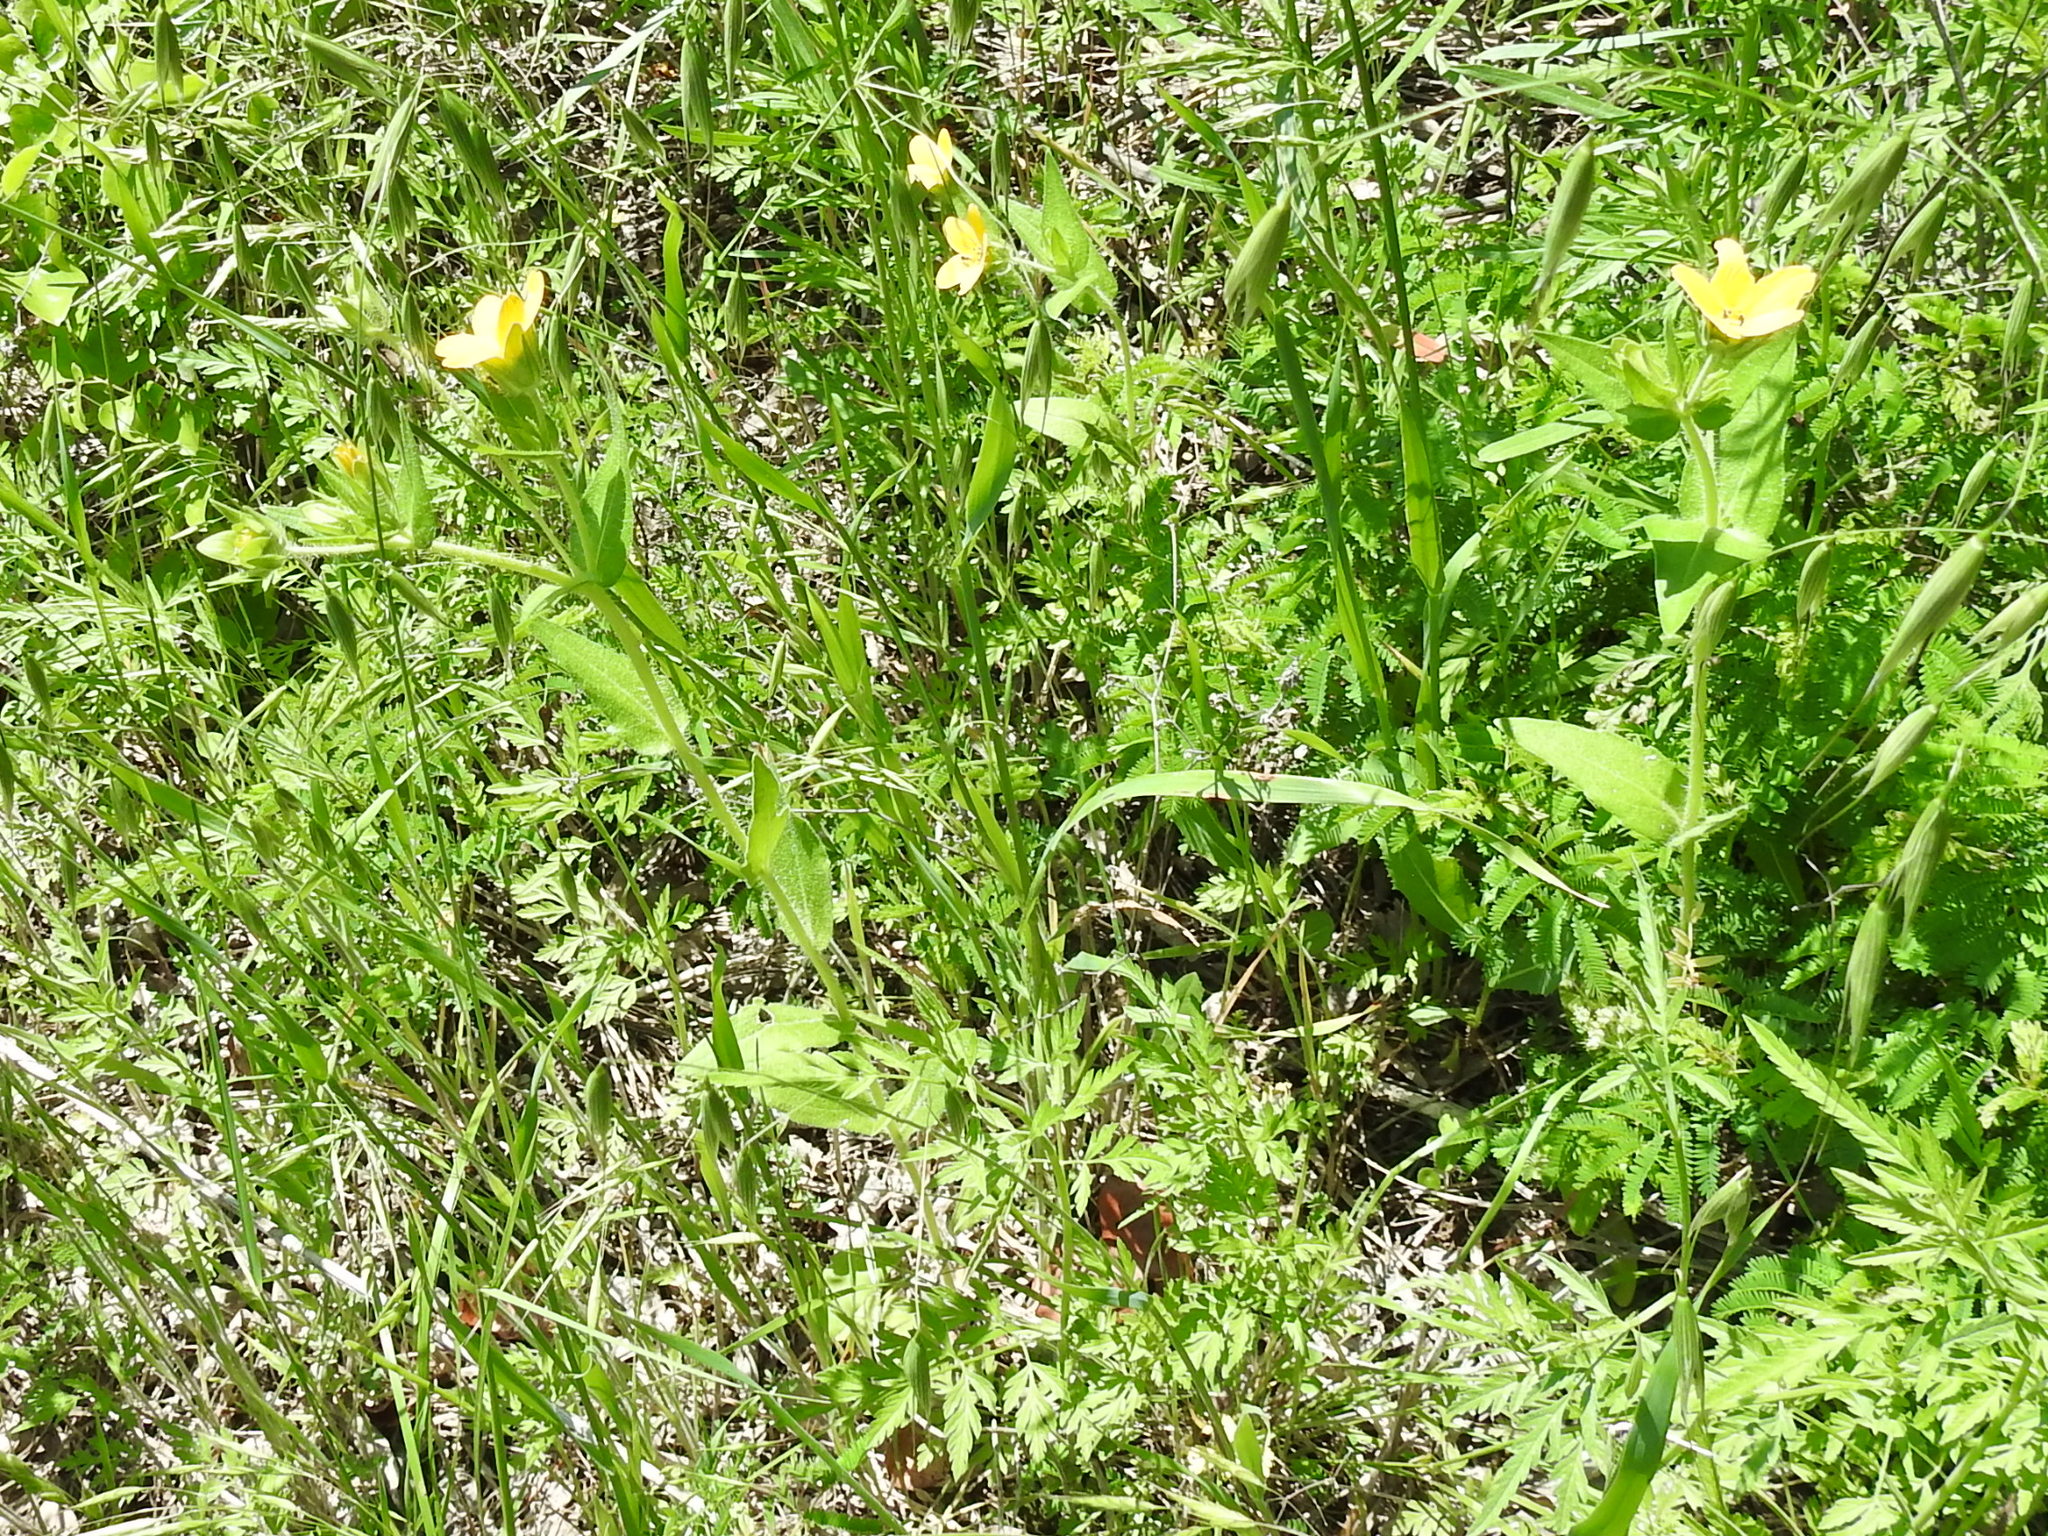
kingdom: Plantae
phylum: Tracheophyta
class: Magnoliopsida
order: Asterales
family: Asteraceae
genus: Lindheimera
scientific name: Lindheimera texana
